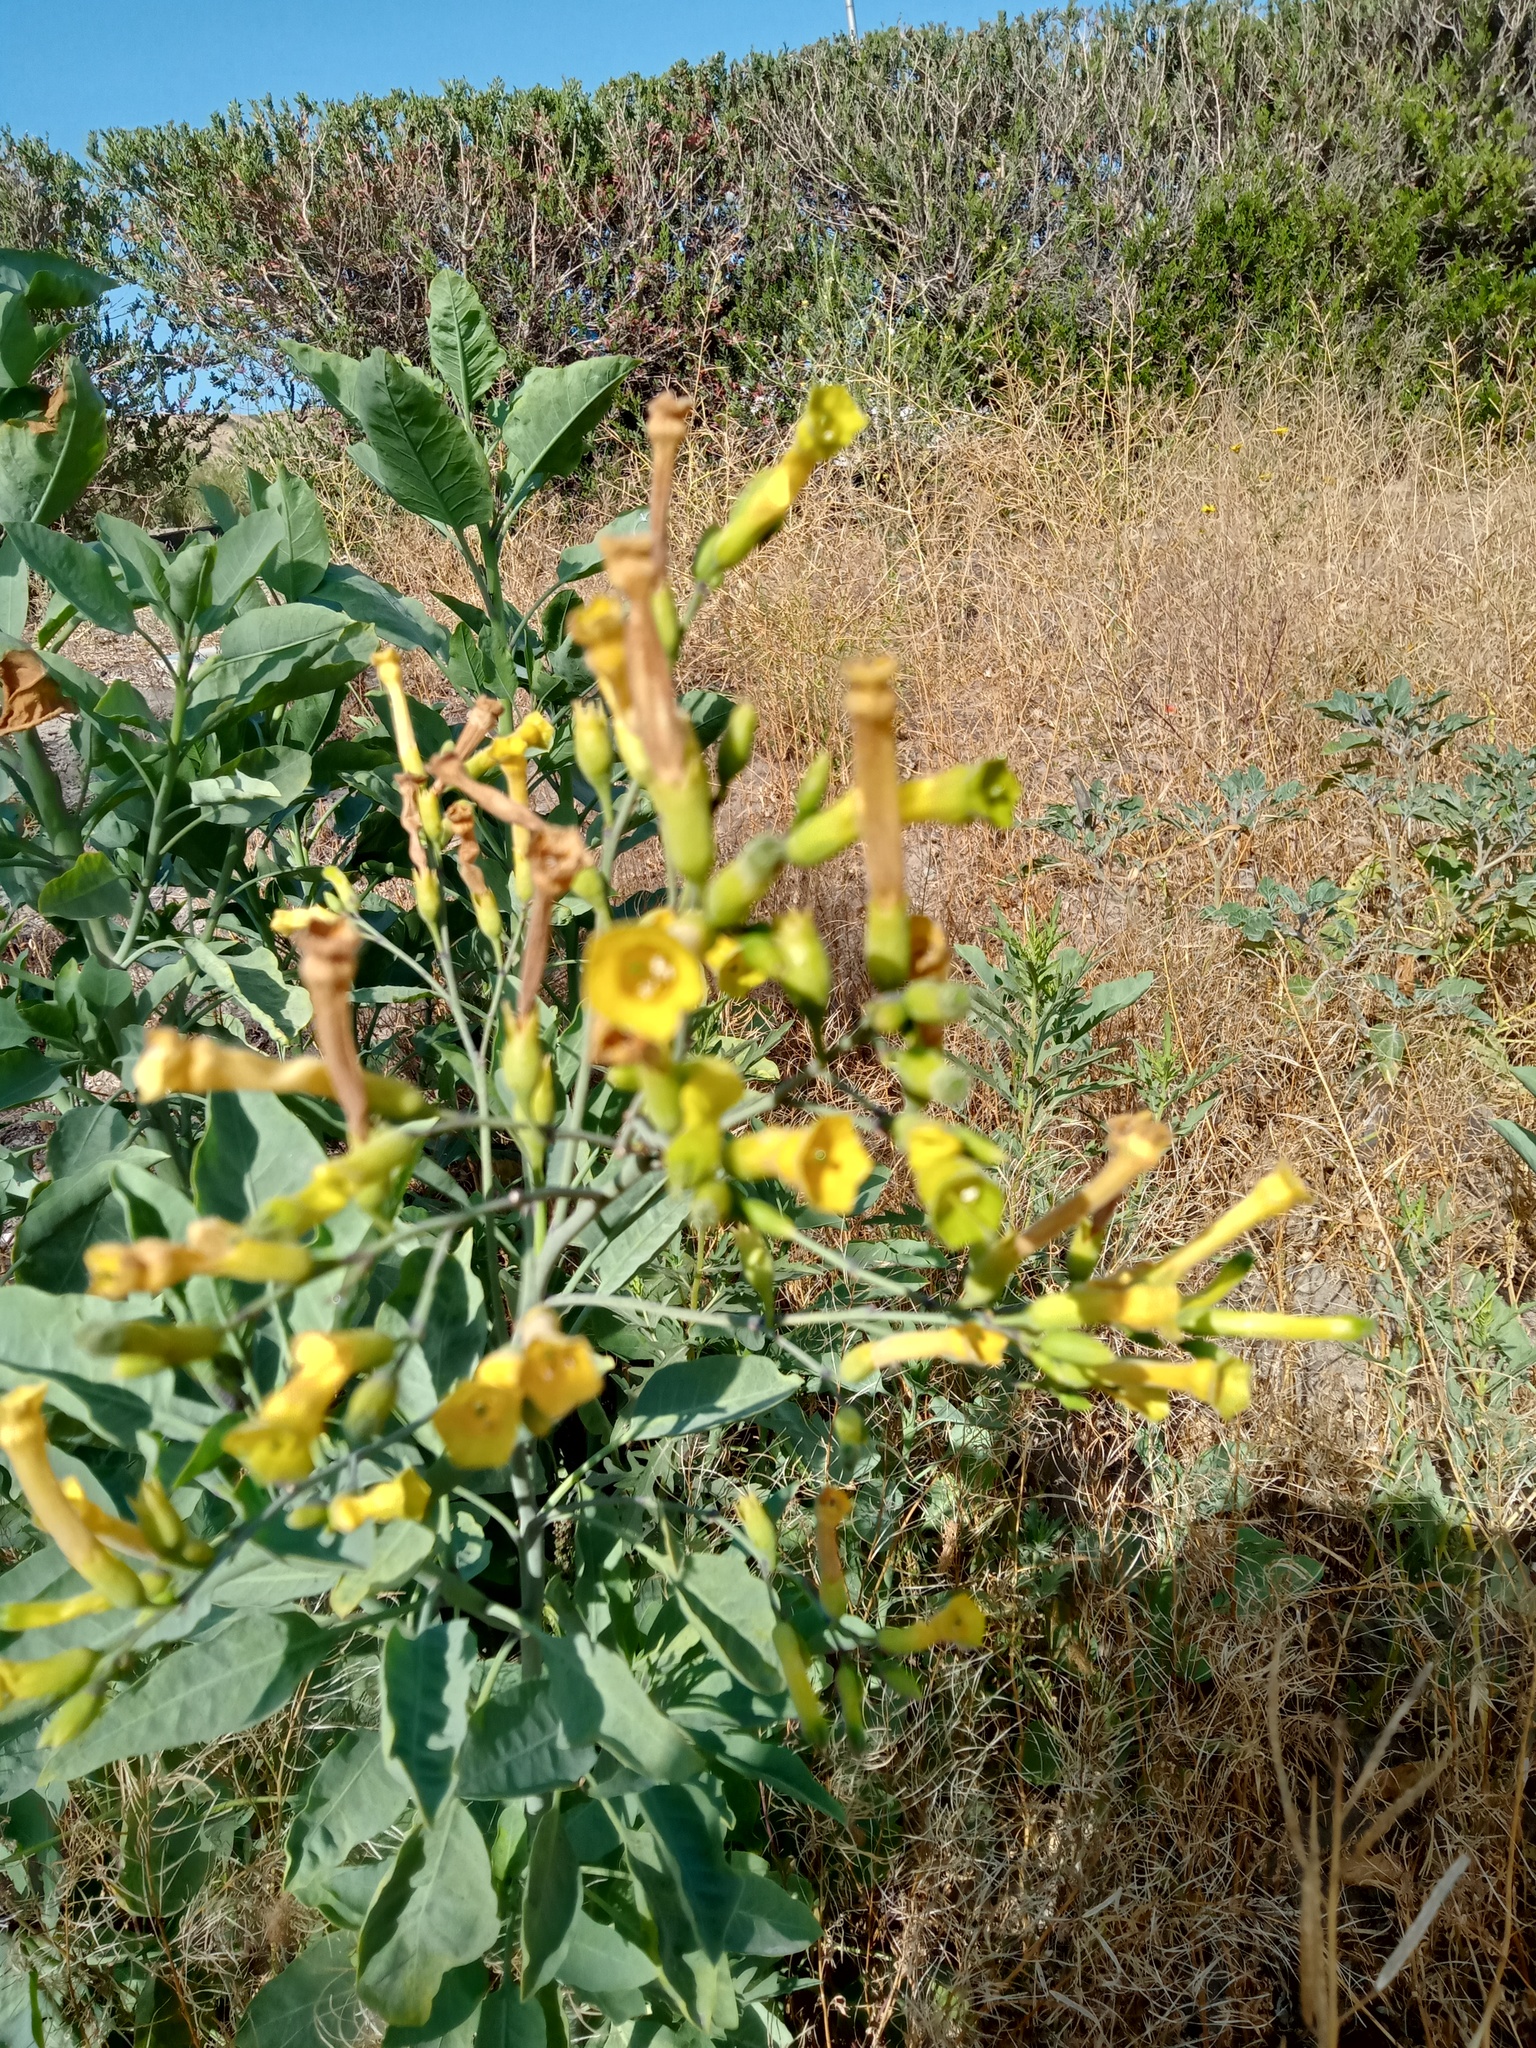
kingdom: Plantae
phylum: Tracheophyta
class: Magnoliopsida
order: Solanales
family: Solanaceae
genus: Nicotiana
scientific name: Nicotiana glauca
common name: Tree tobacco
